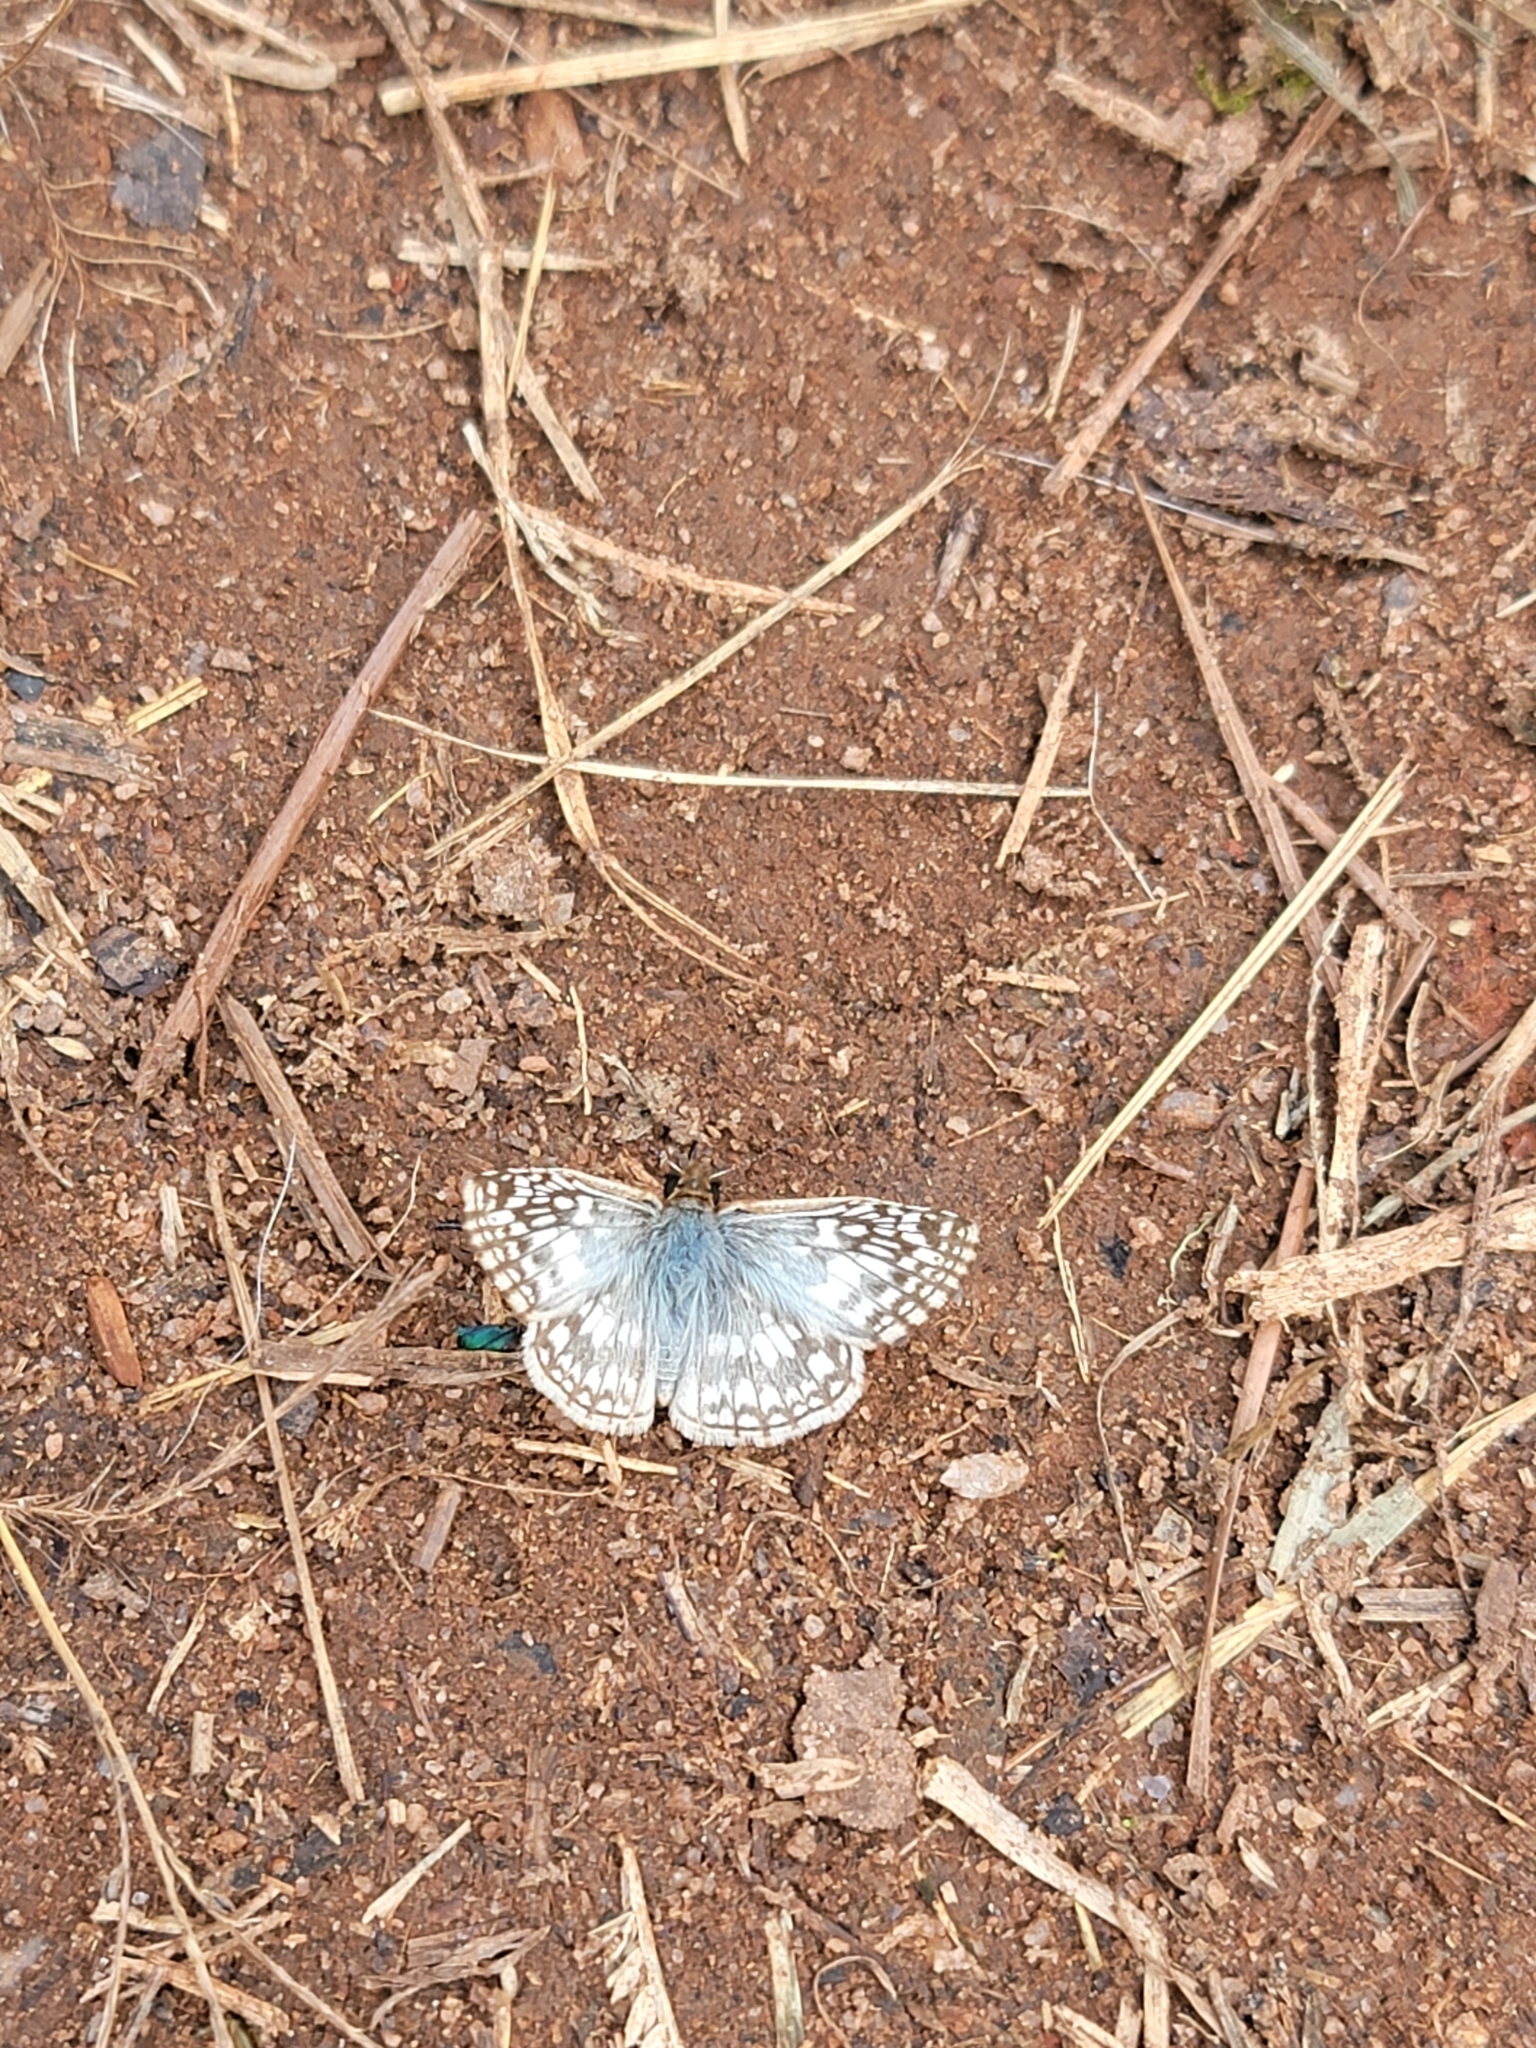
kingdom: Animalia
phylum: Arthropoda
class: Insecta
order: Lepidoptera
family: Hesperiidae
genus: Pyrgus
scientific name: Pyrgus oileus
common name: Tropical checkered-skipper
